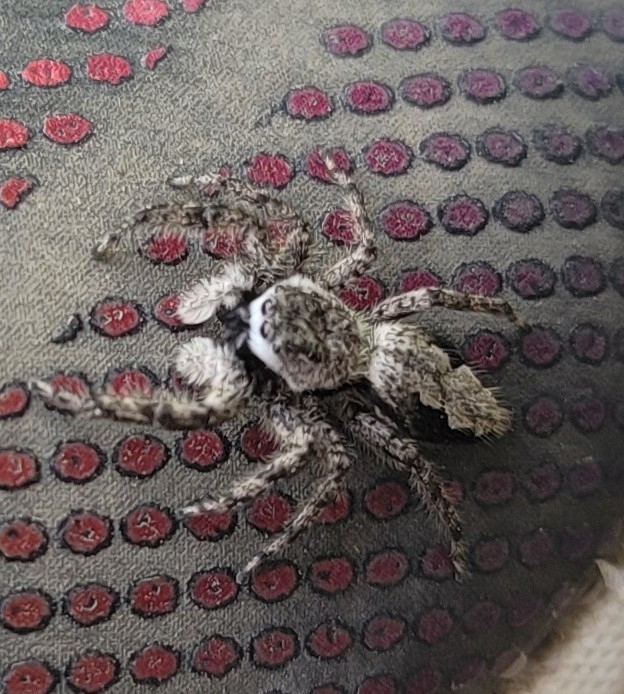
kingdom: Animalia
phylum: Arthropoda
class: Arachnida
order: Araneae
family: Salticidae
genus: Platycryptus
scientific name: Platycryptus undatus
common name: Tan jumping spider
